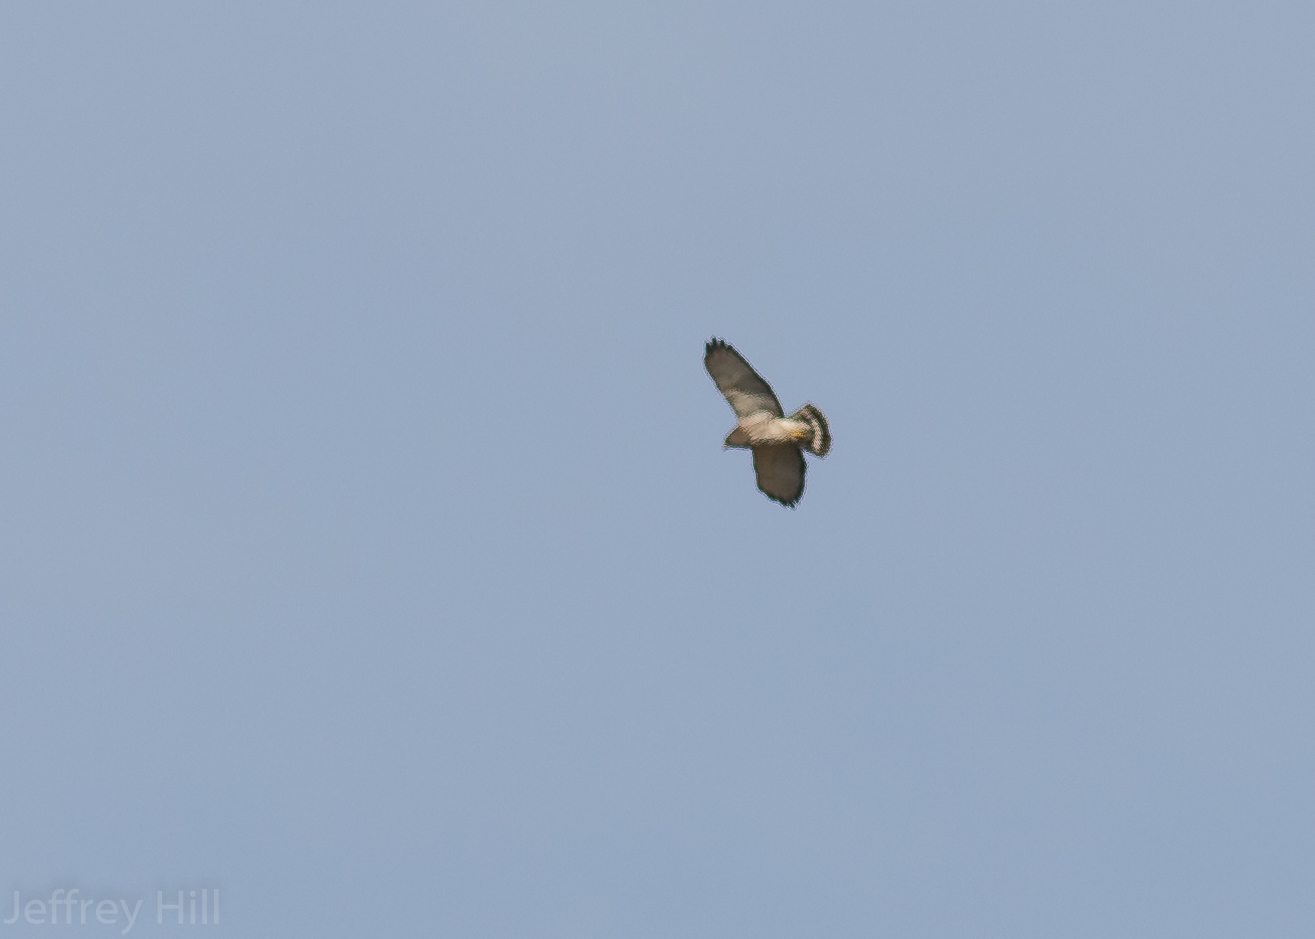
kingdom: Animalia
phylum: Chordata
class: Aves
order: Accipitriformes
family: Accipitridae
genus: Buteo
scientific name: Buteo platypterus
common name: Broad-winged hawk
